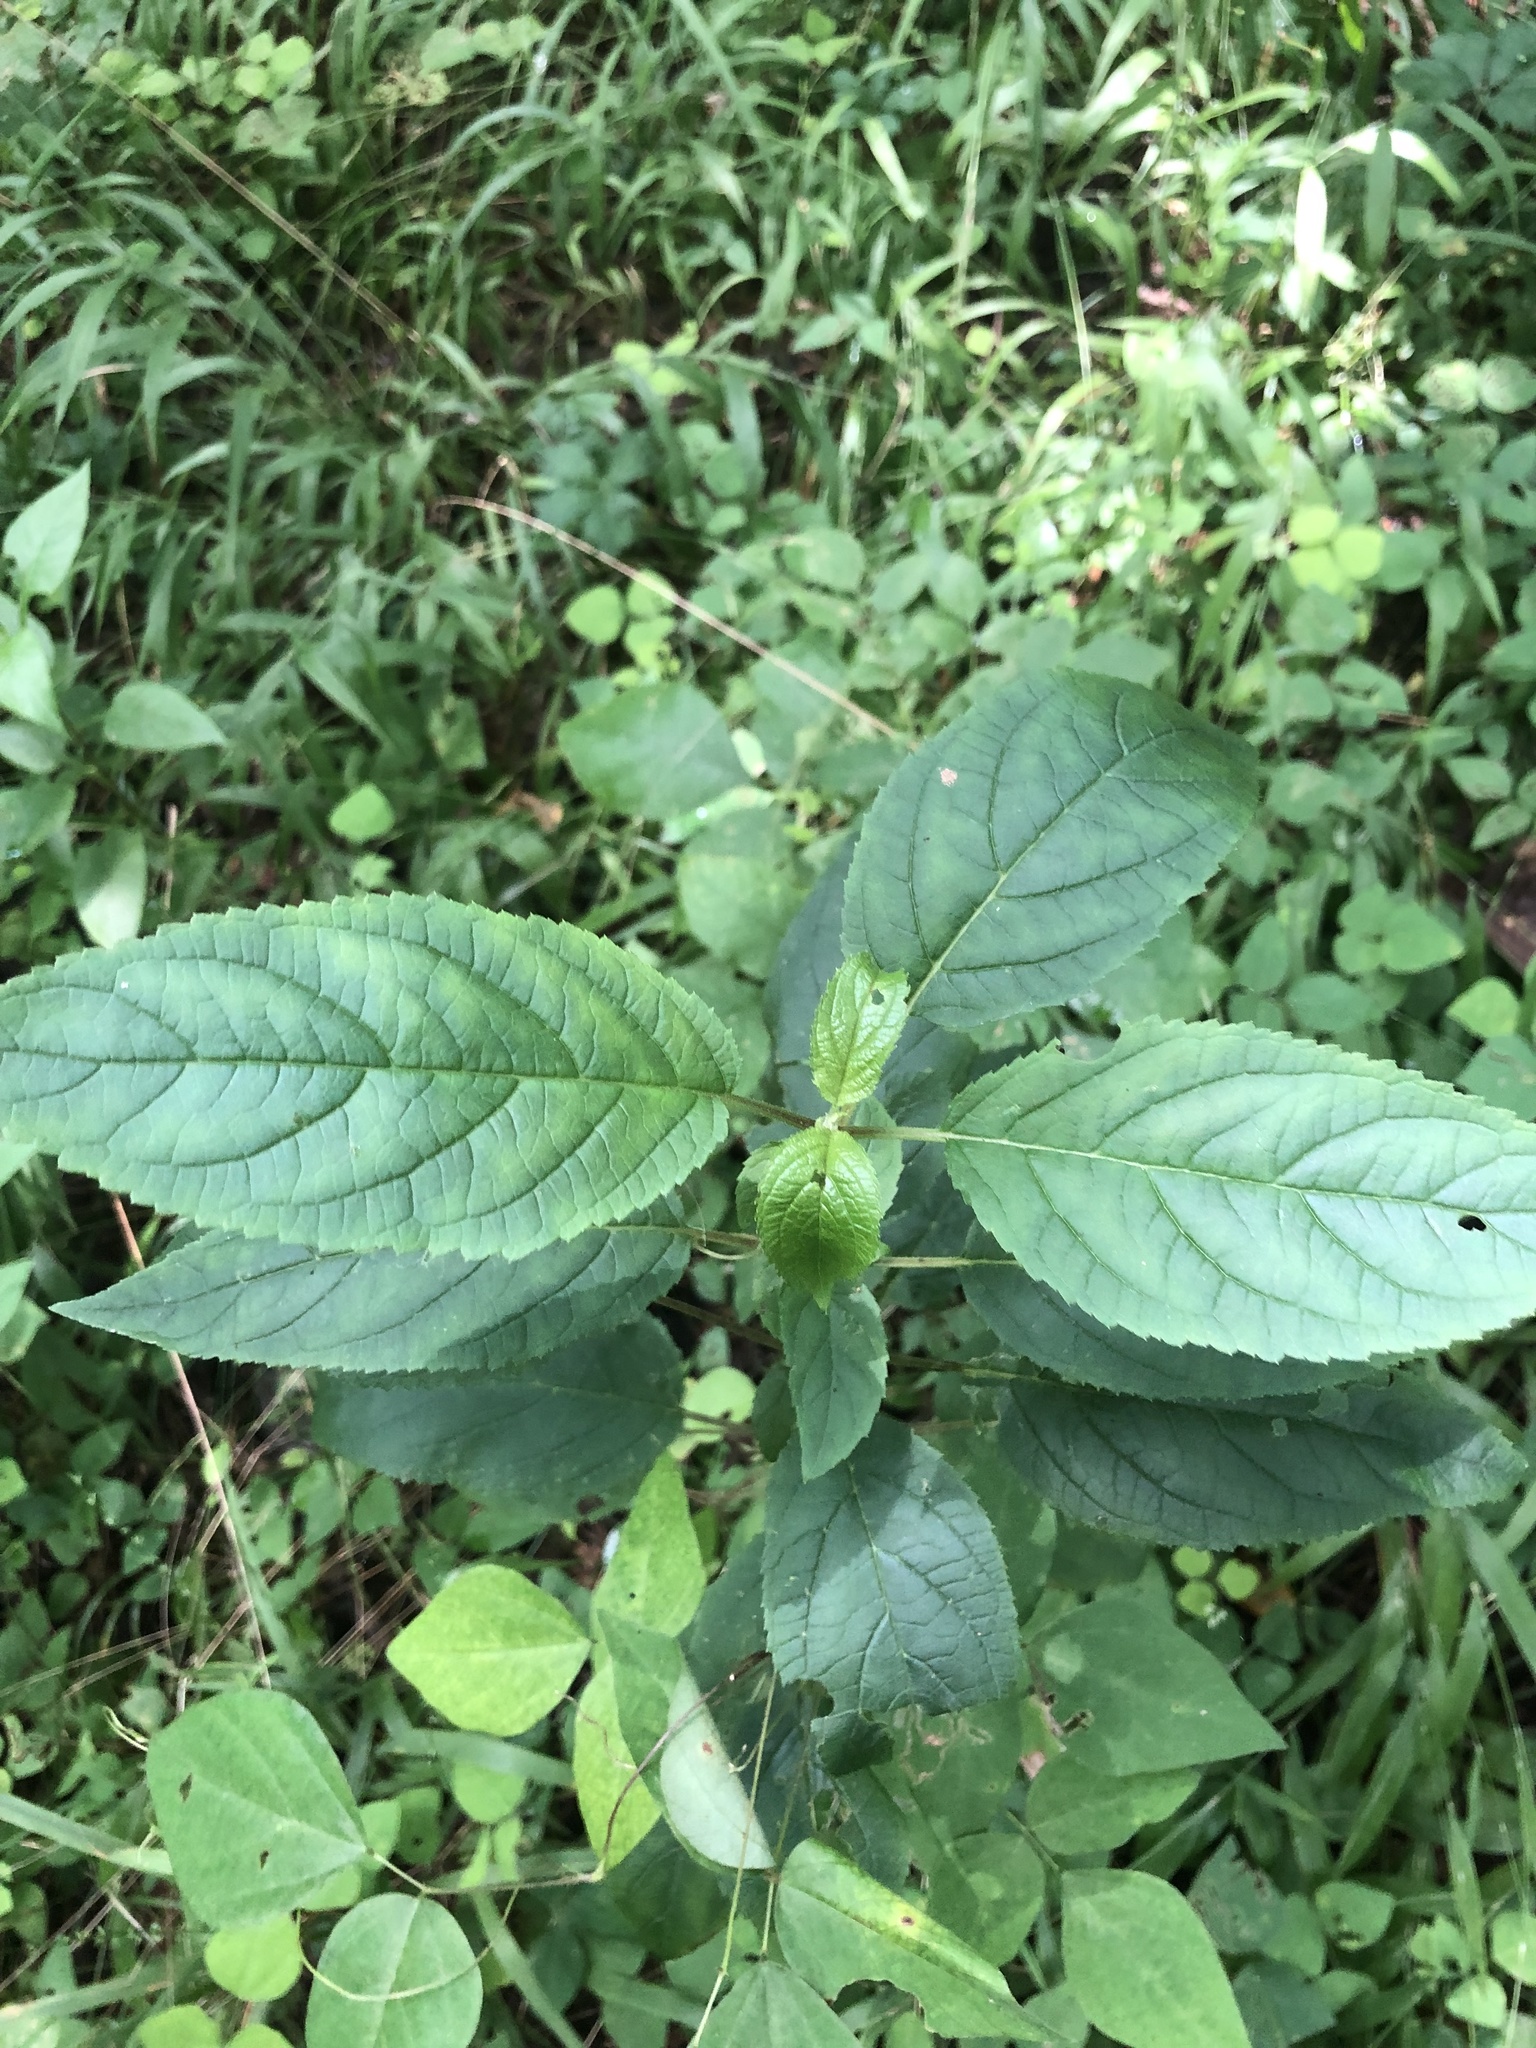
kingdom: Plantae
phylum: Tracheophyta
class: Magnoliopsida
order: Lamiales
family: Scrophulariaceae
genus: Scrophularia
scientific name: Scrophularia marilandica
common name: Eastern figwort
